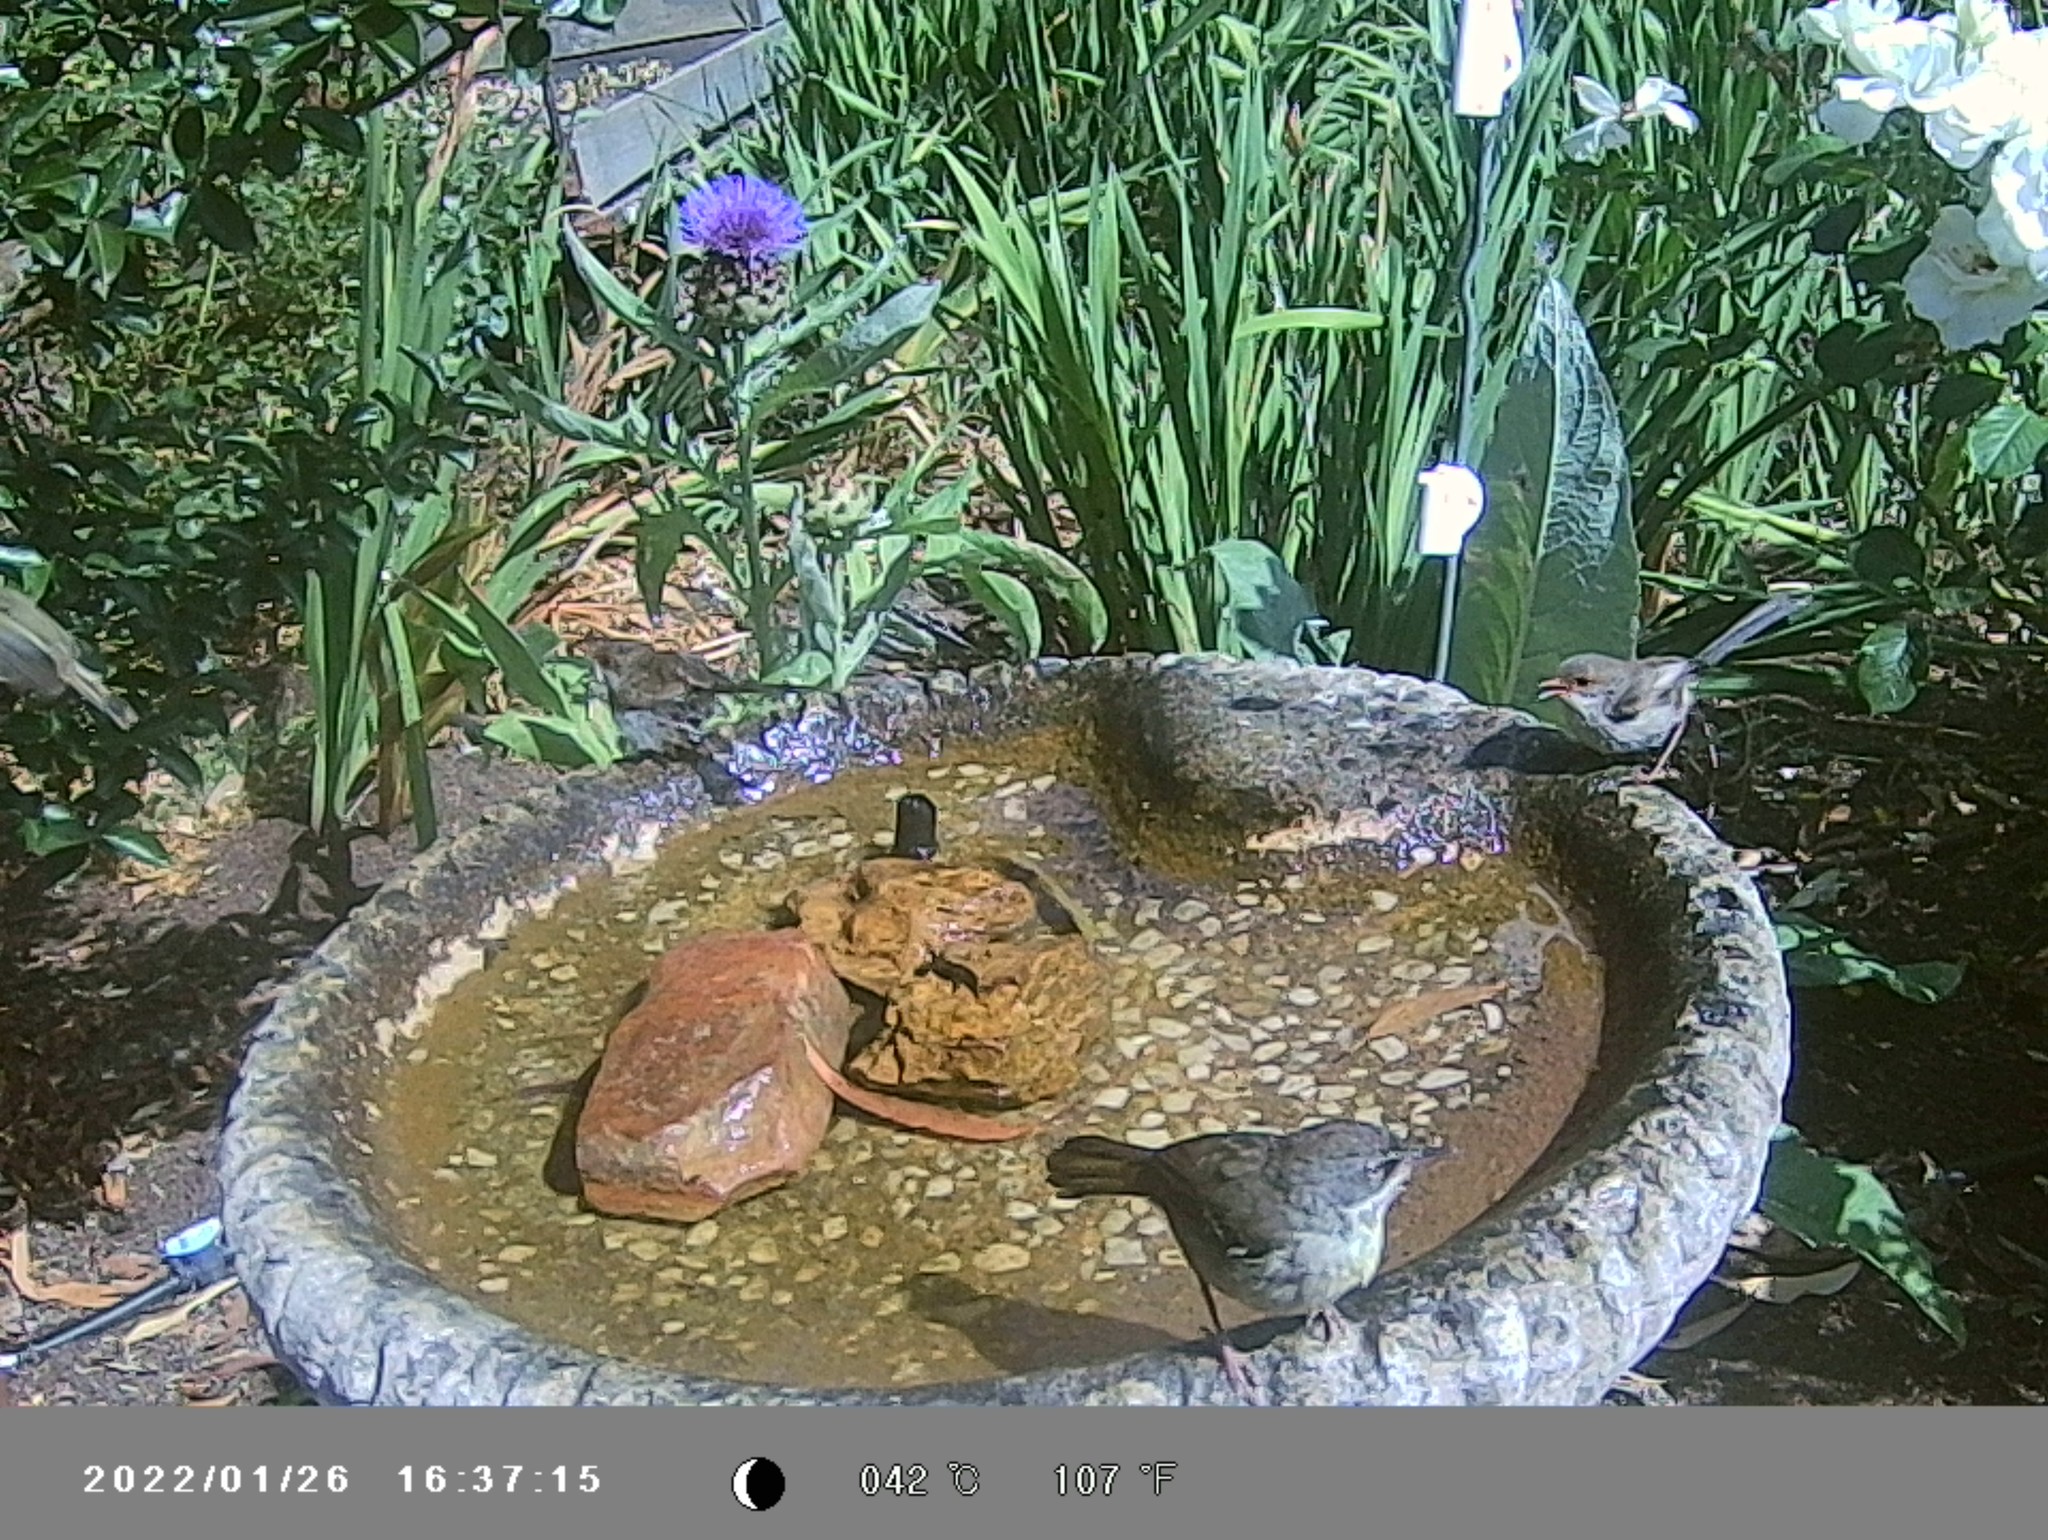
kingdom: Animalia
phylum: Chordata
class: Aves
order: Passeriformes
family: Acanthizidae
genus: Sericornis
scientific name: Sericornis frontalis
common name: White-browed scrubwren
